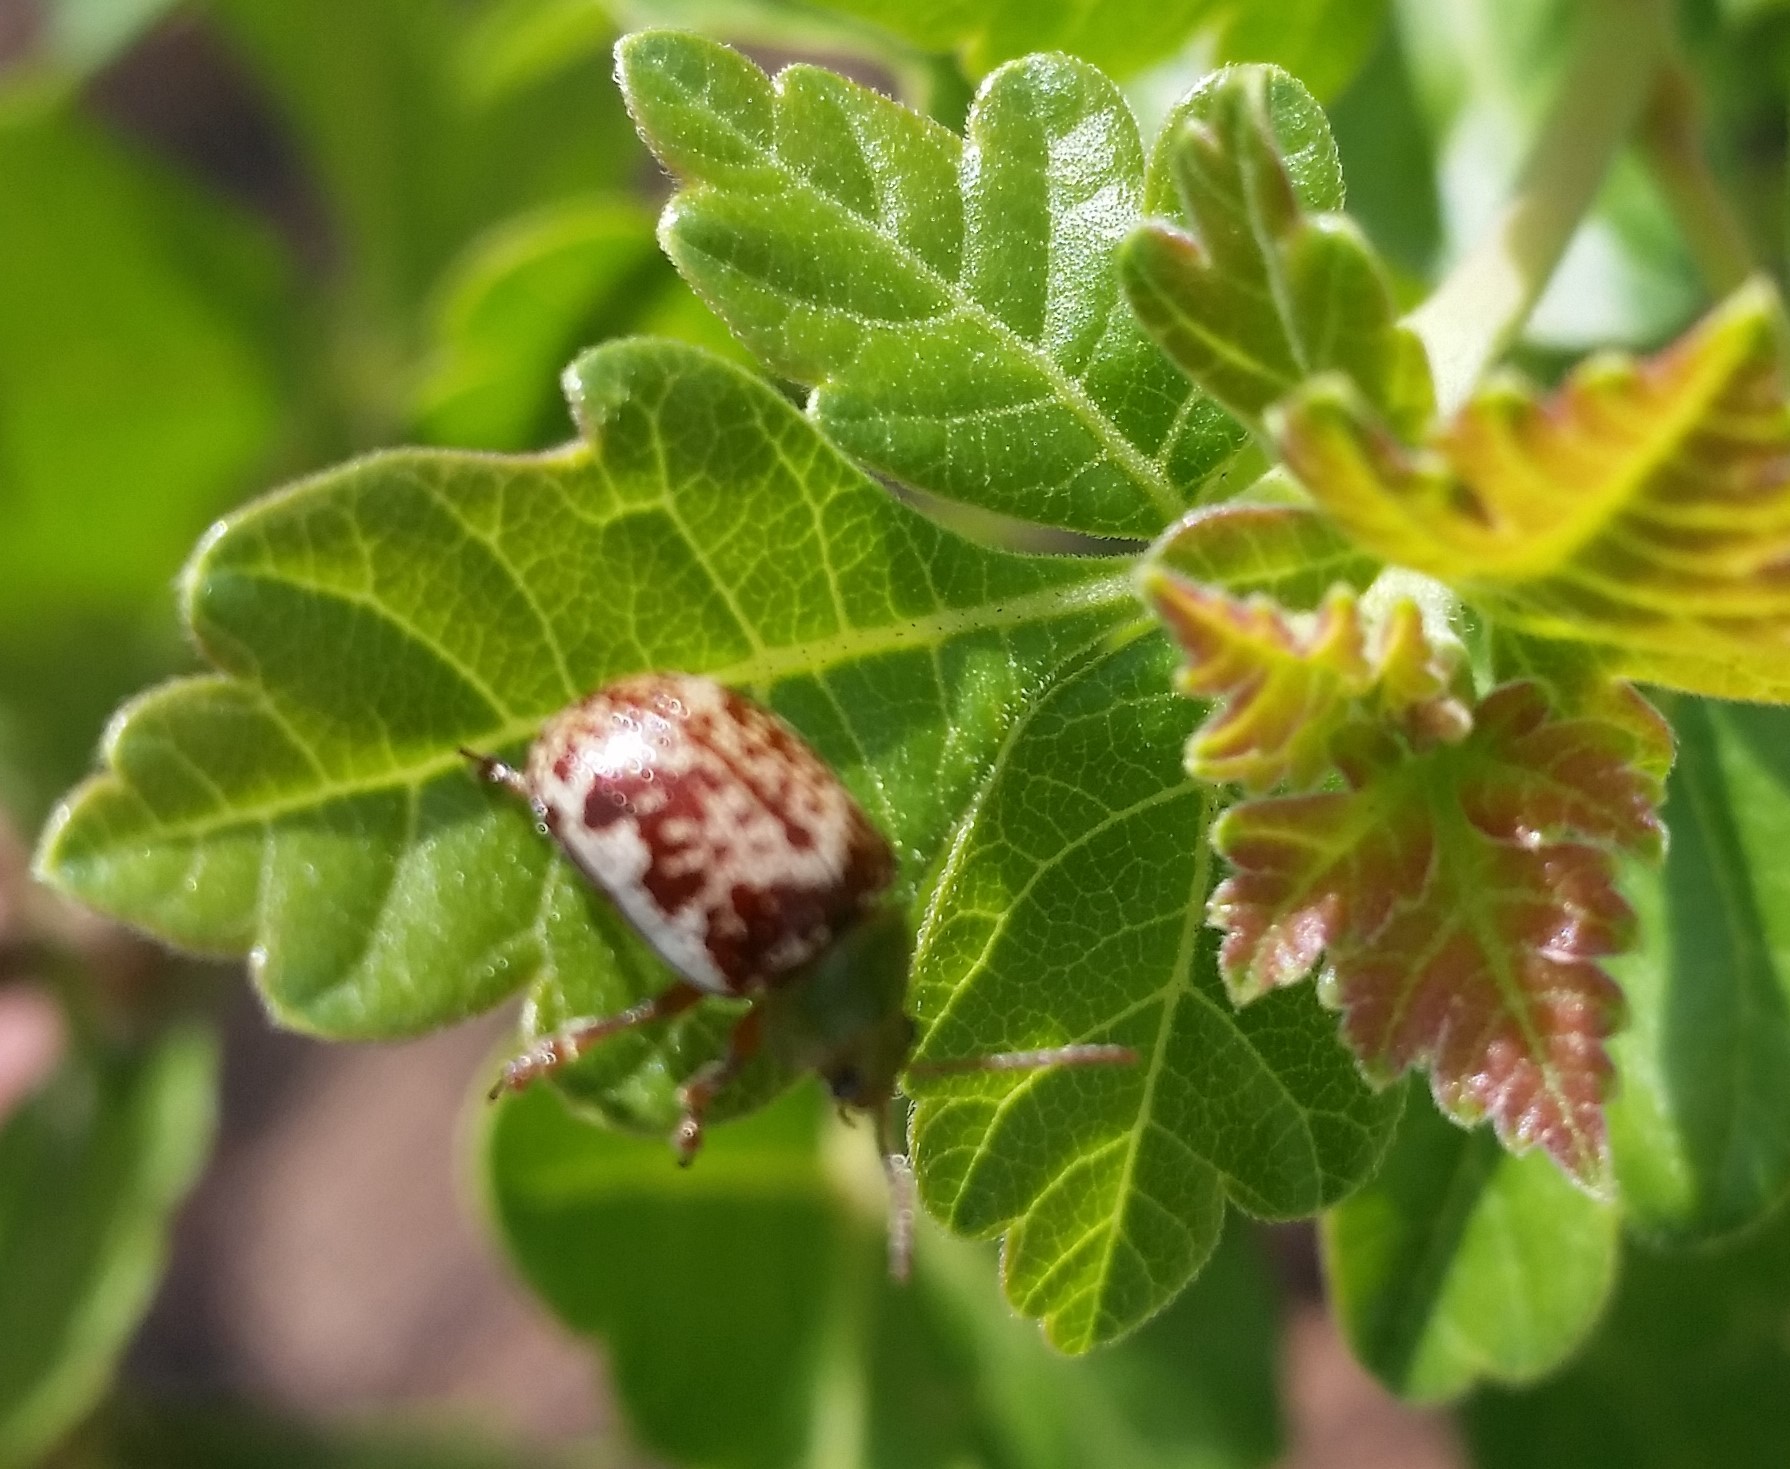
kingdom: Animalia
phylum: Arthropoda
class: Insecta
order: Coleoptera
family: Chrysomelidae
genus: Blepharida
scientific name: Blepharida rhois
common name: Sumac flea beetle
